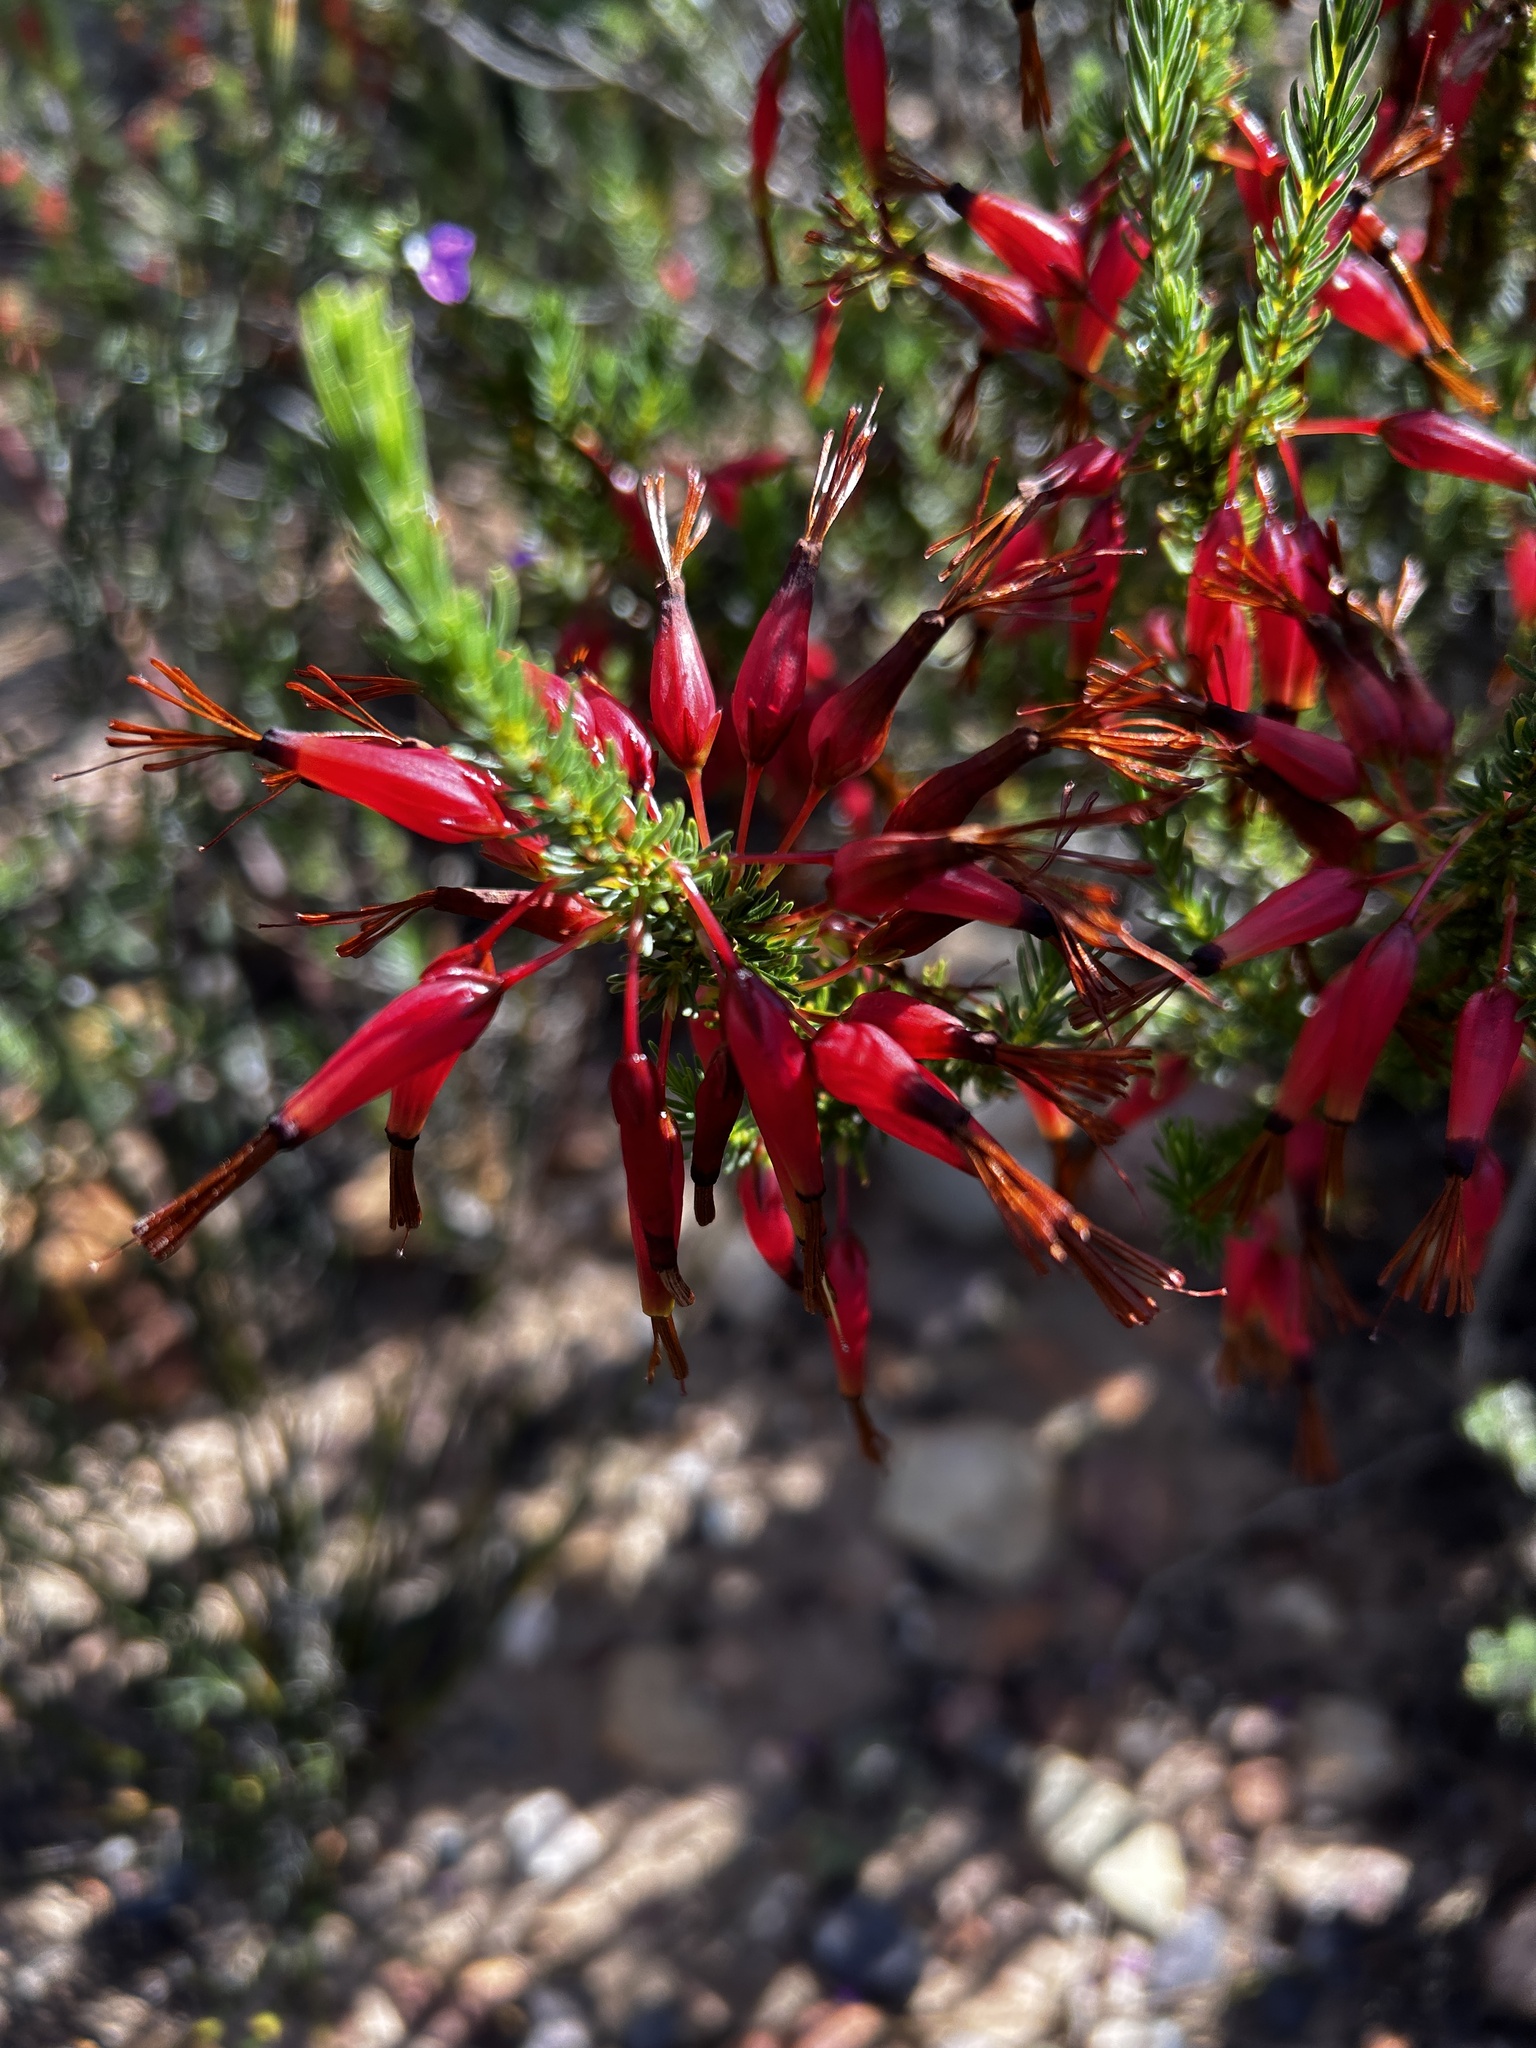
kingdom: Plantae
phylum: Tracheophyta
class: Magnoliopsida
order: Ericales
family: Ericaceae
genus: Erica
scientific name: Erica plukenetii
